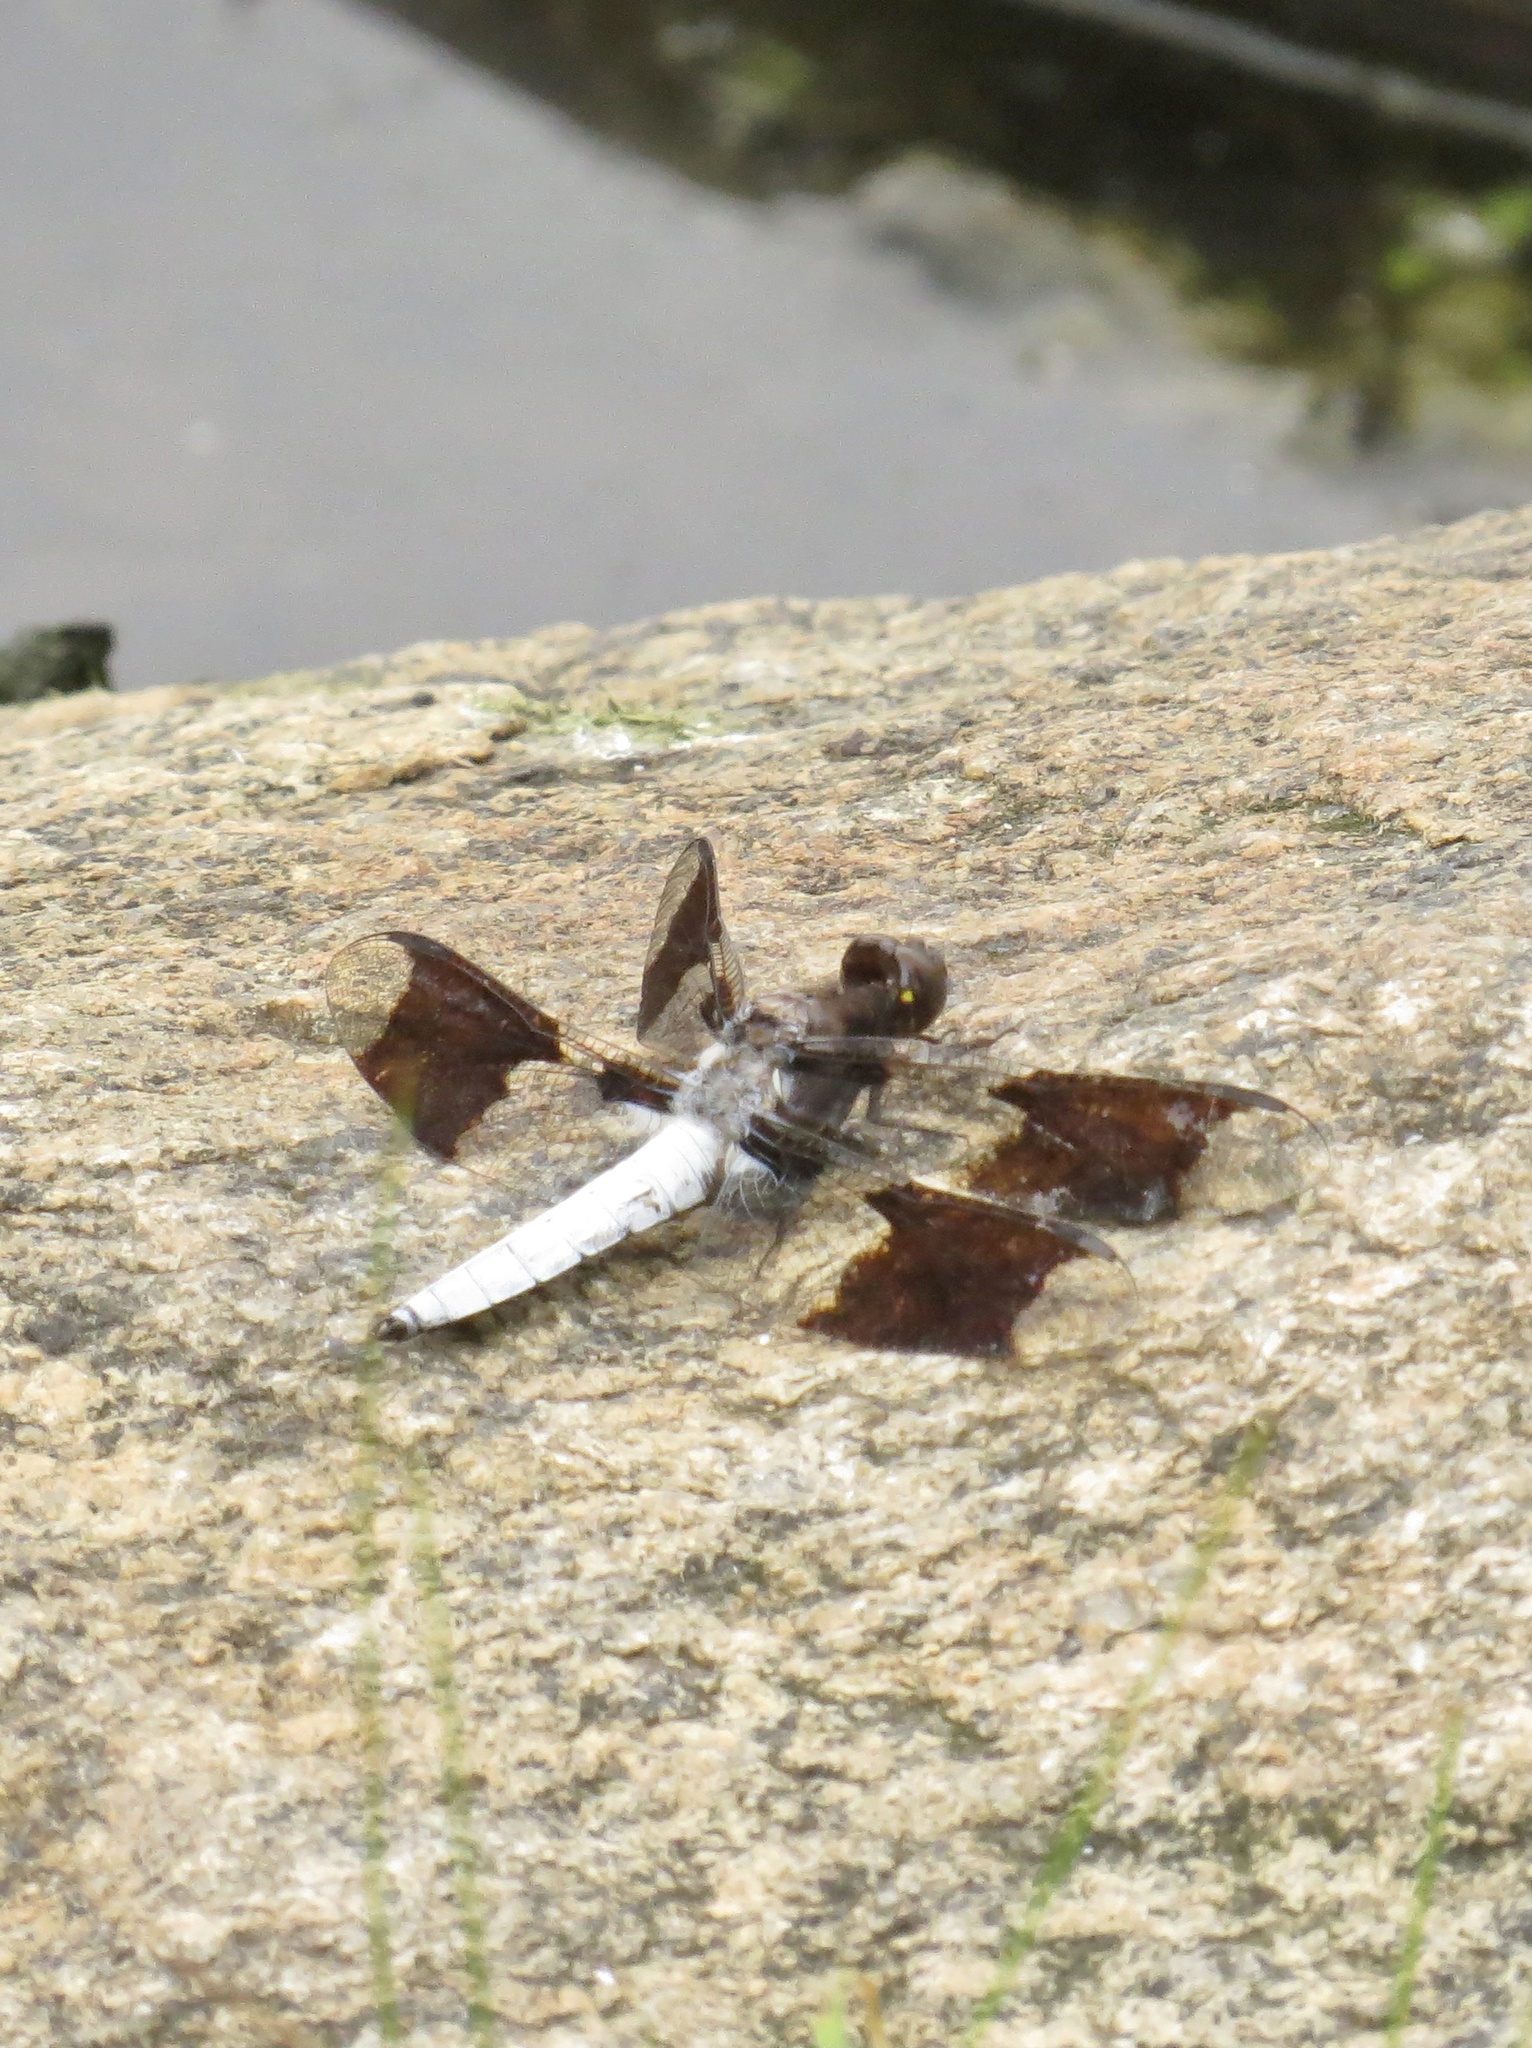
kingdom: Animalia
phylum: Arthropoda
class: Insecta
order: Odonata
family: Libellulidae
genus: Plathemis
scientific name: Plathemis lydia
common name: Common whitetail
